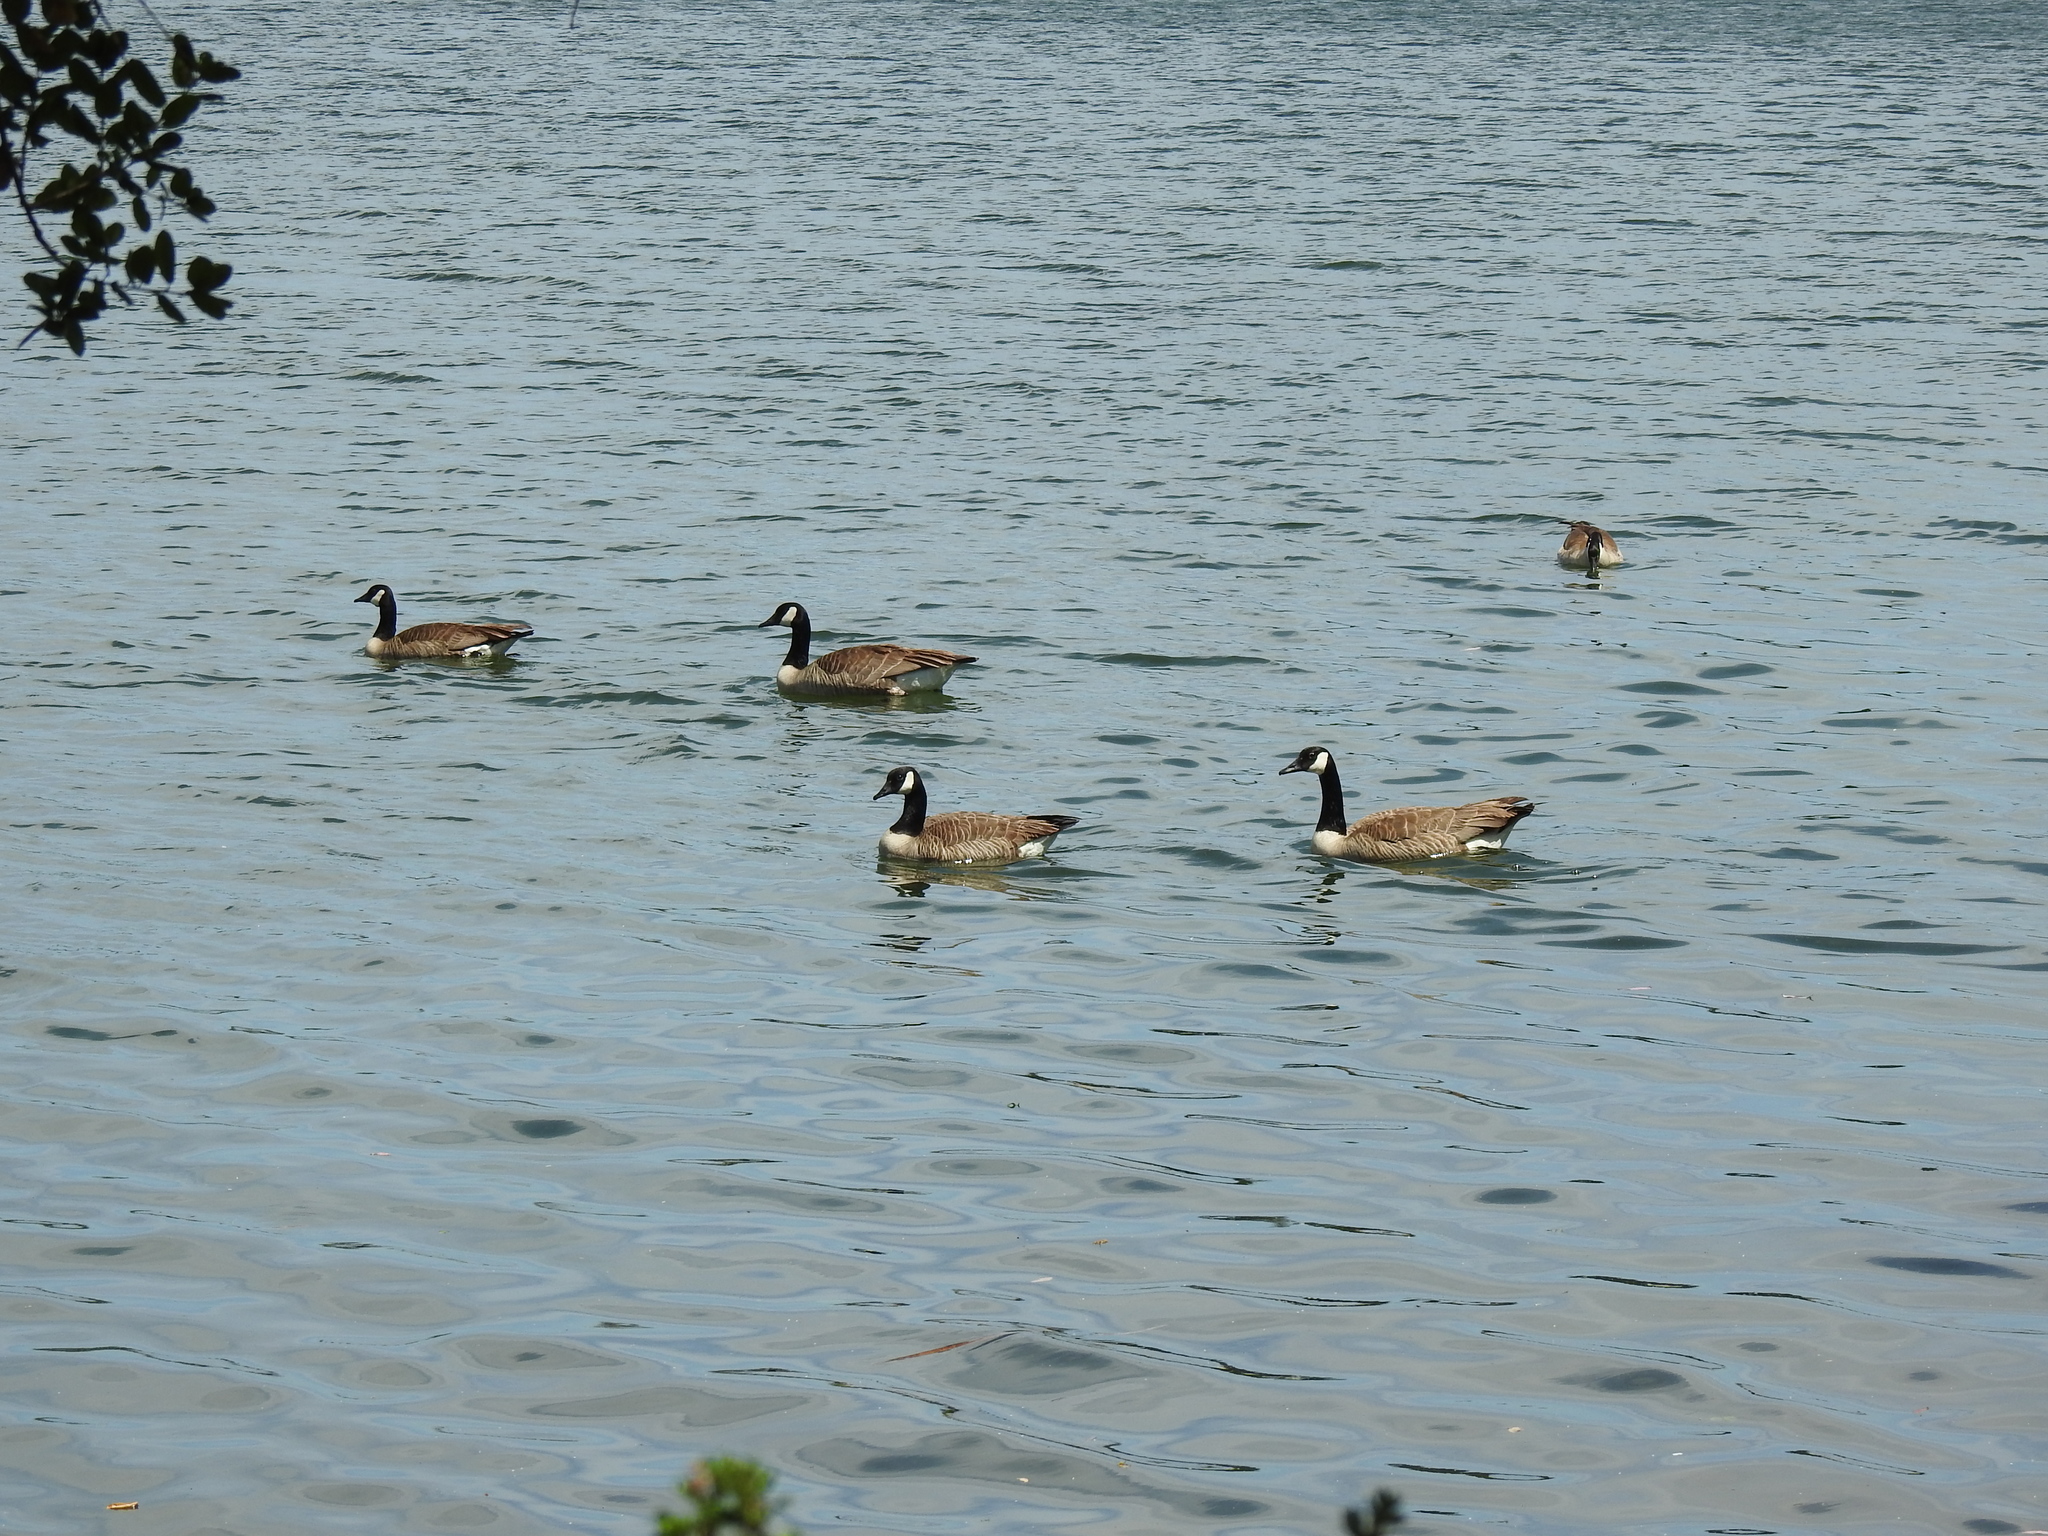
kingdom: Animalia
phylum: Chordata
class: Aves
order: Anseriformes
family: Anatidae
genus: Branta
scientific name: Branta canadensis
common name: Canada goose
